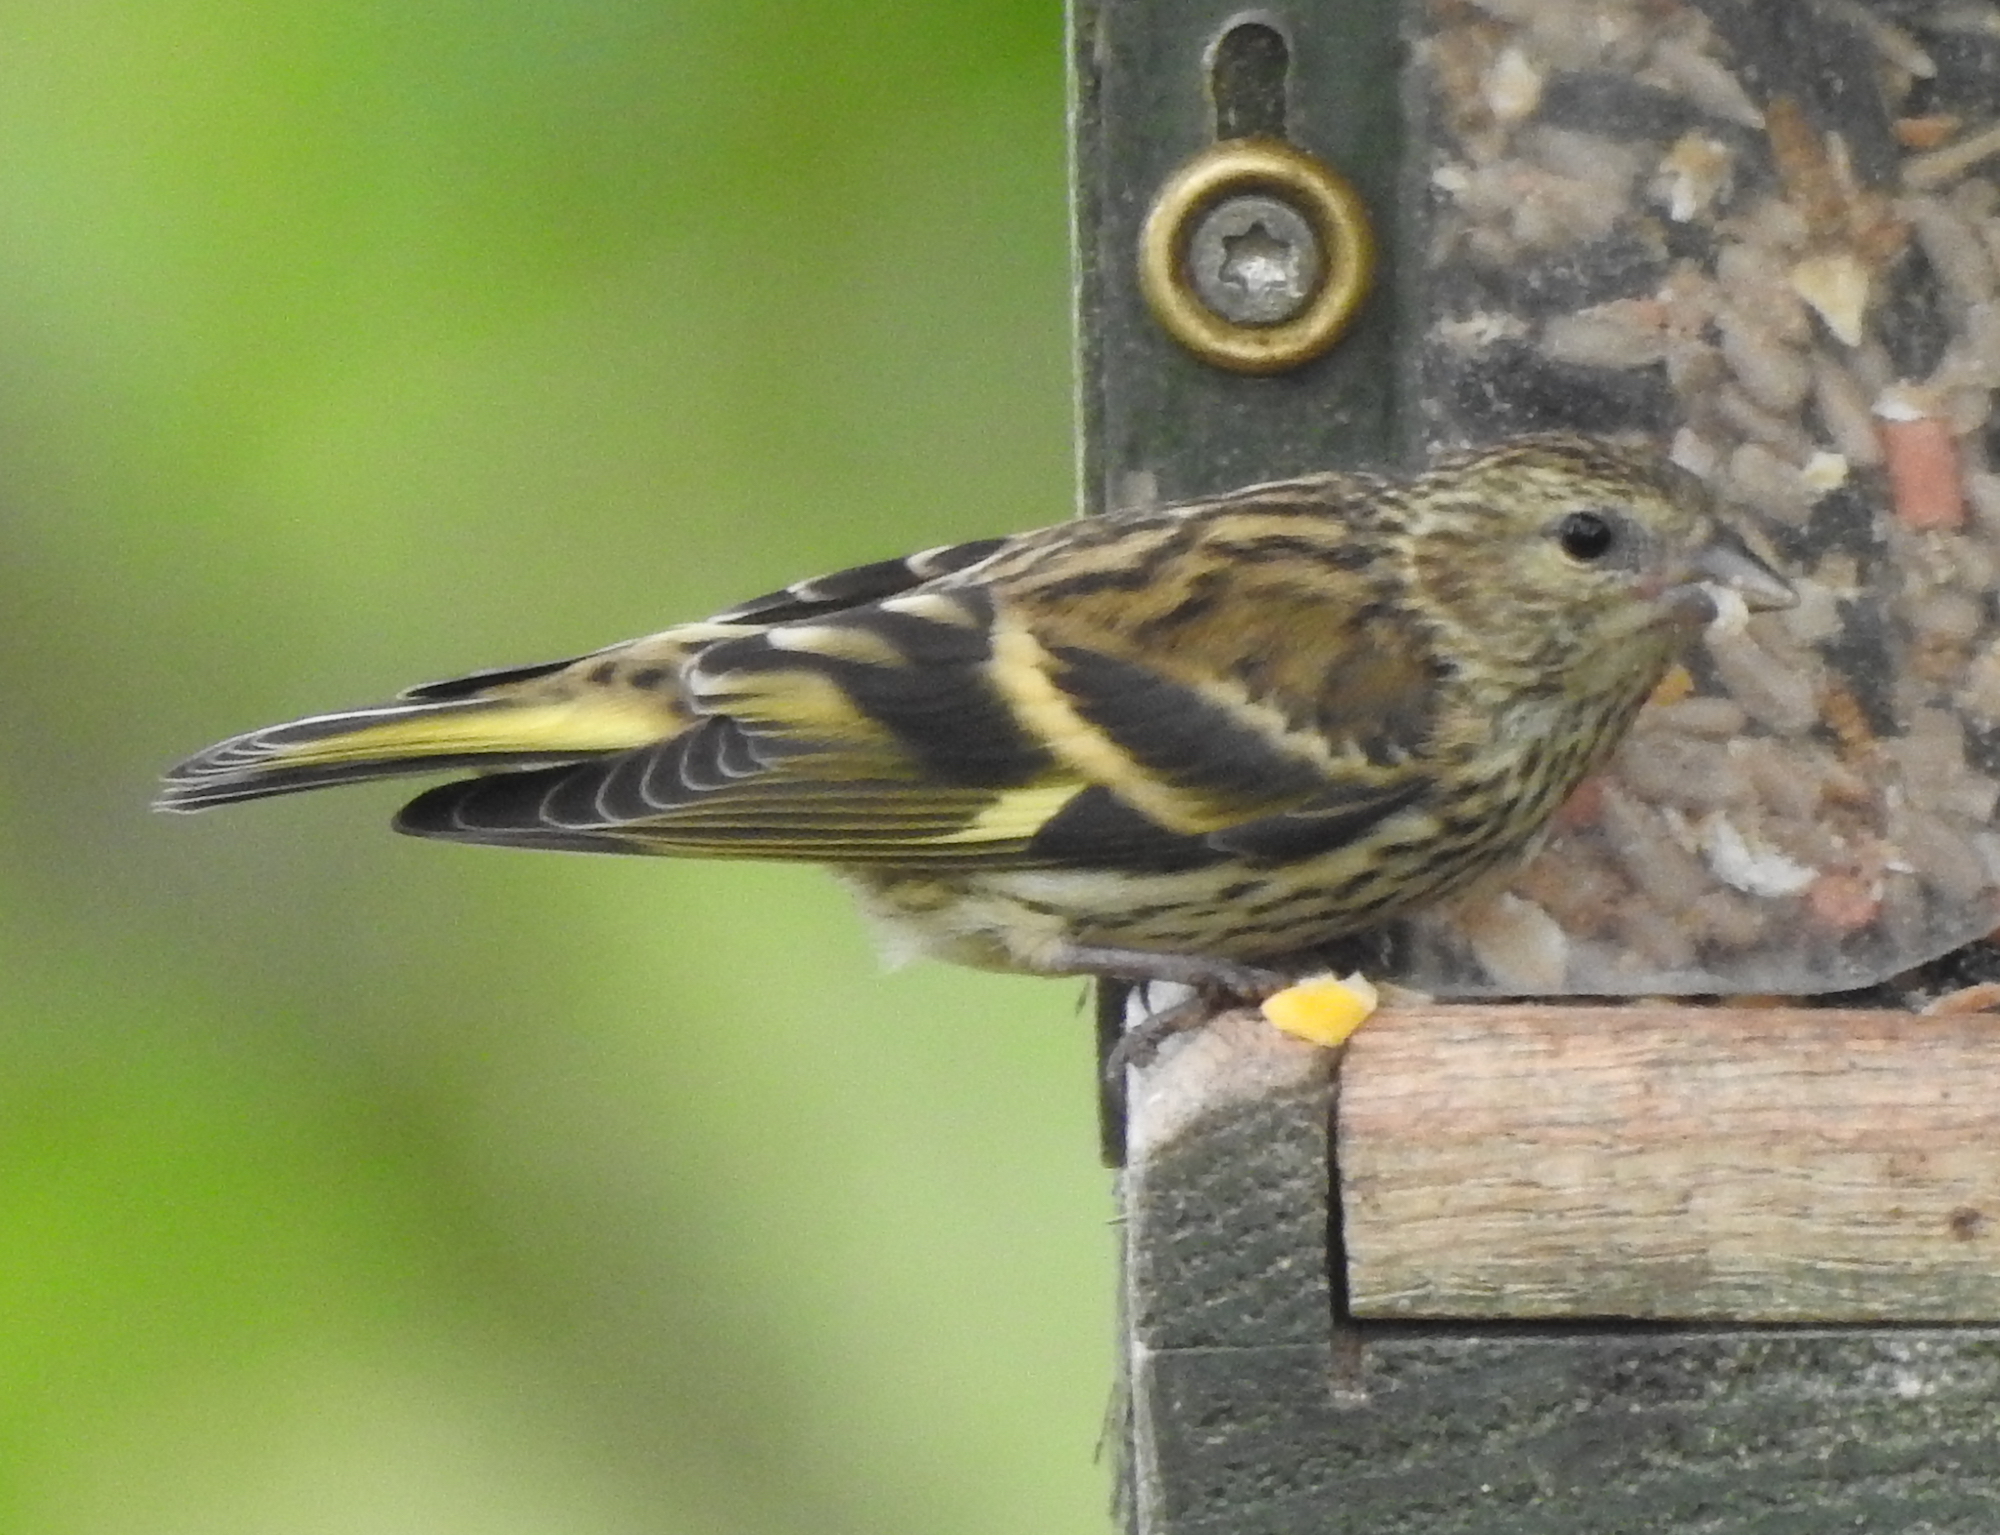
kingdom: Animalia
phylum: Chordata
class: Aves
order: Passeriformes
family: Fringillidae
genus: Spinus
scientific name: Spinus spinus
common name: Eurasian siskin
